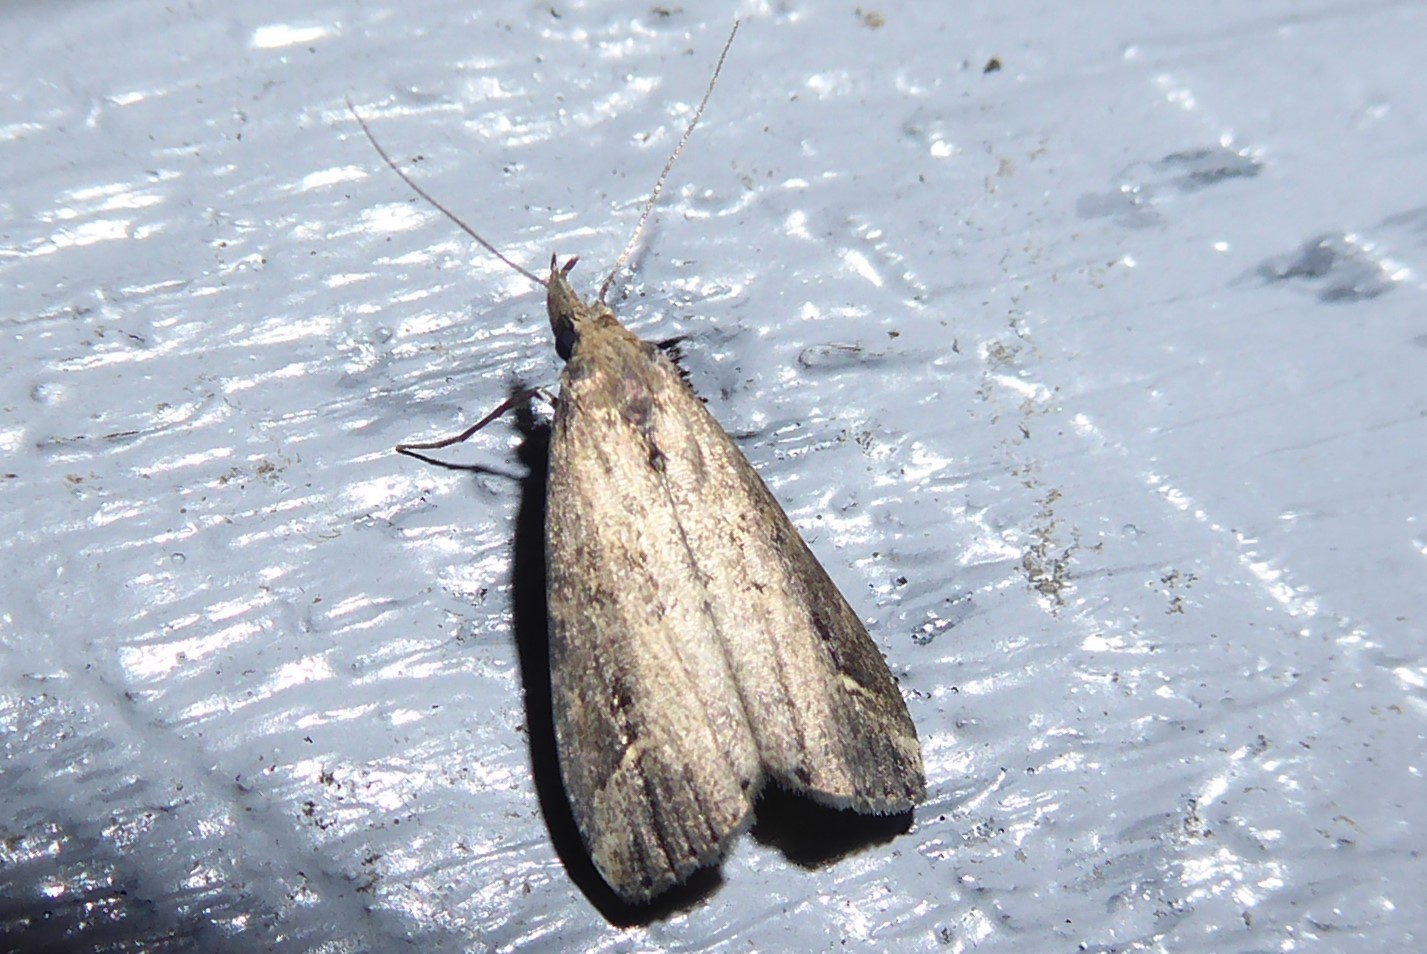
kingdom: Animalia
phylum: Arthropoda
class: Insecta
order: Lepidoptera
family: Erebidae
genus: Schrankia
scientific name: Schrankia costaestrigalis
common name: Pinion-streaked snout
